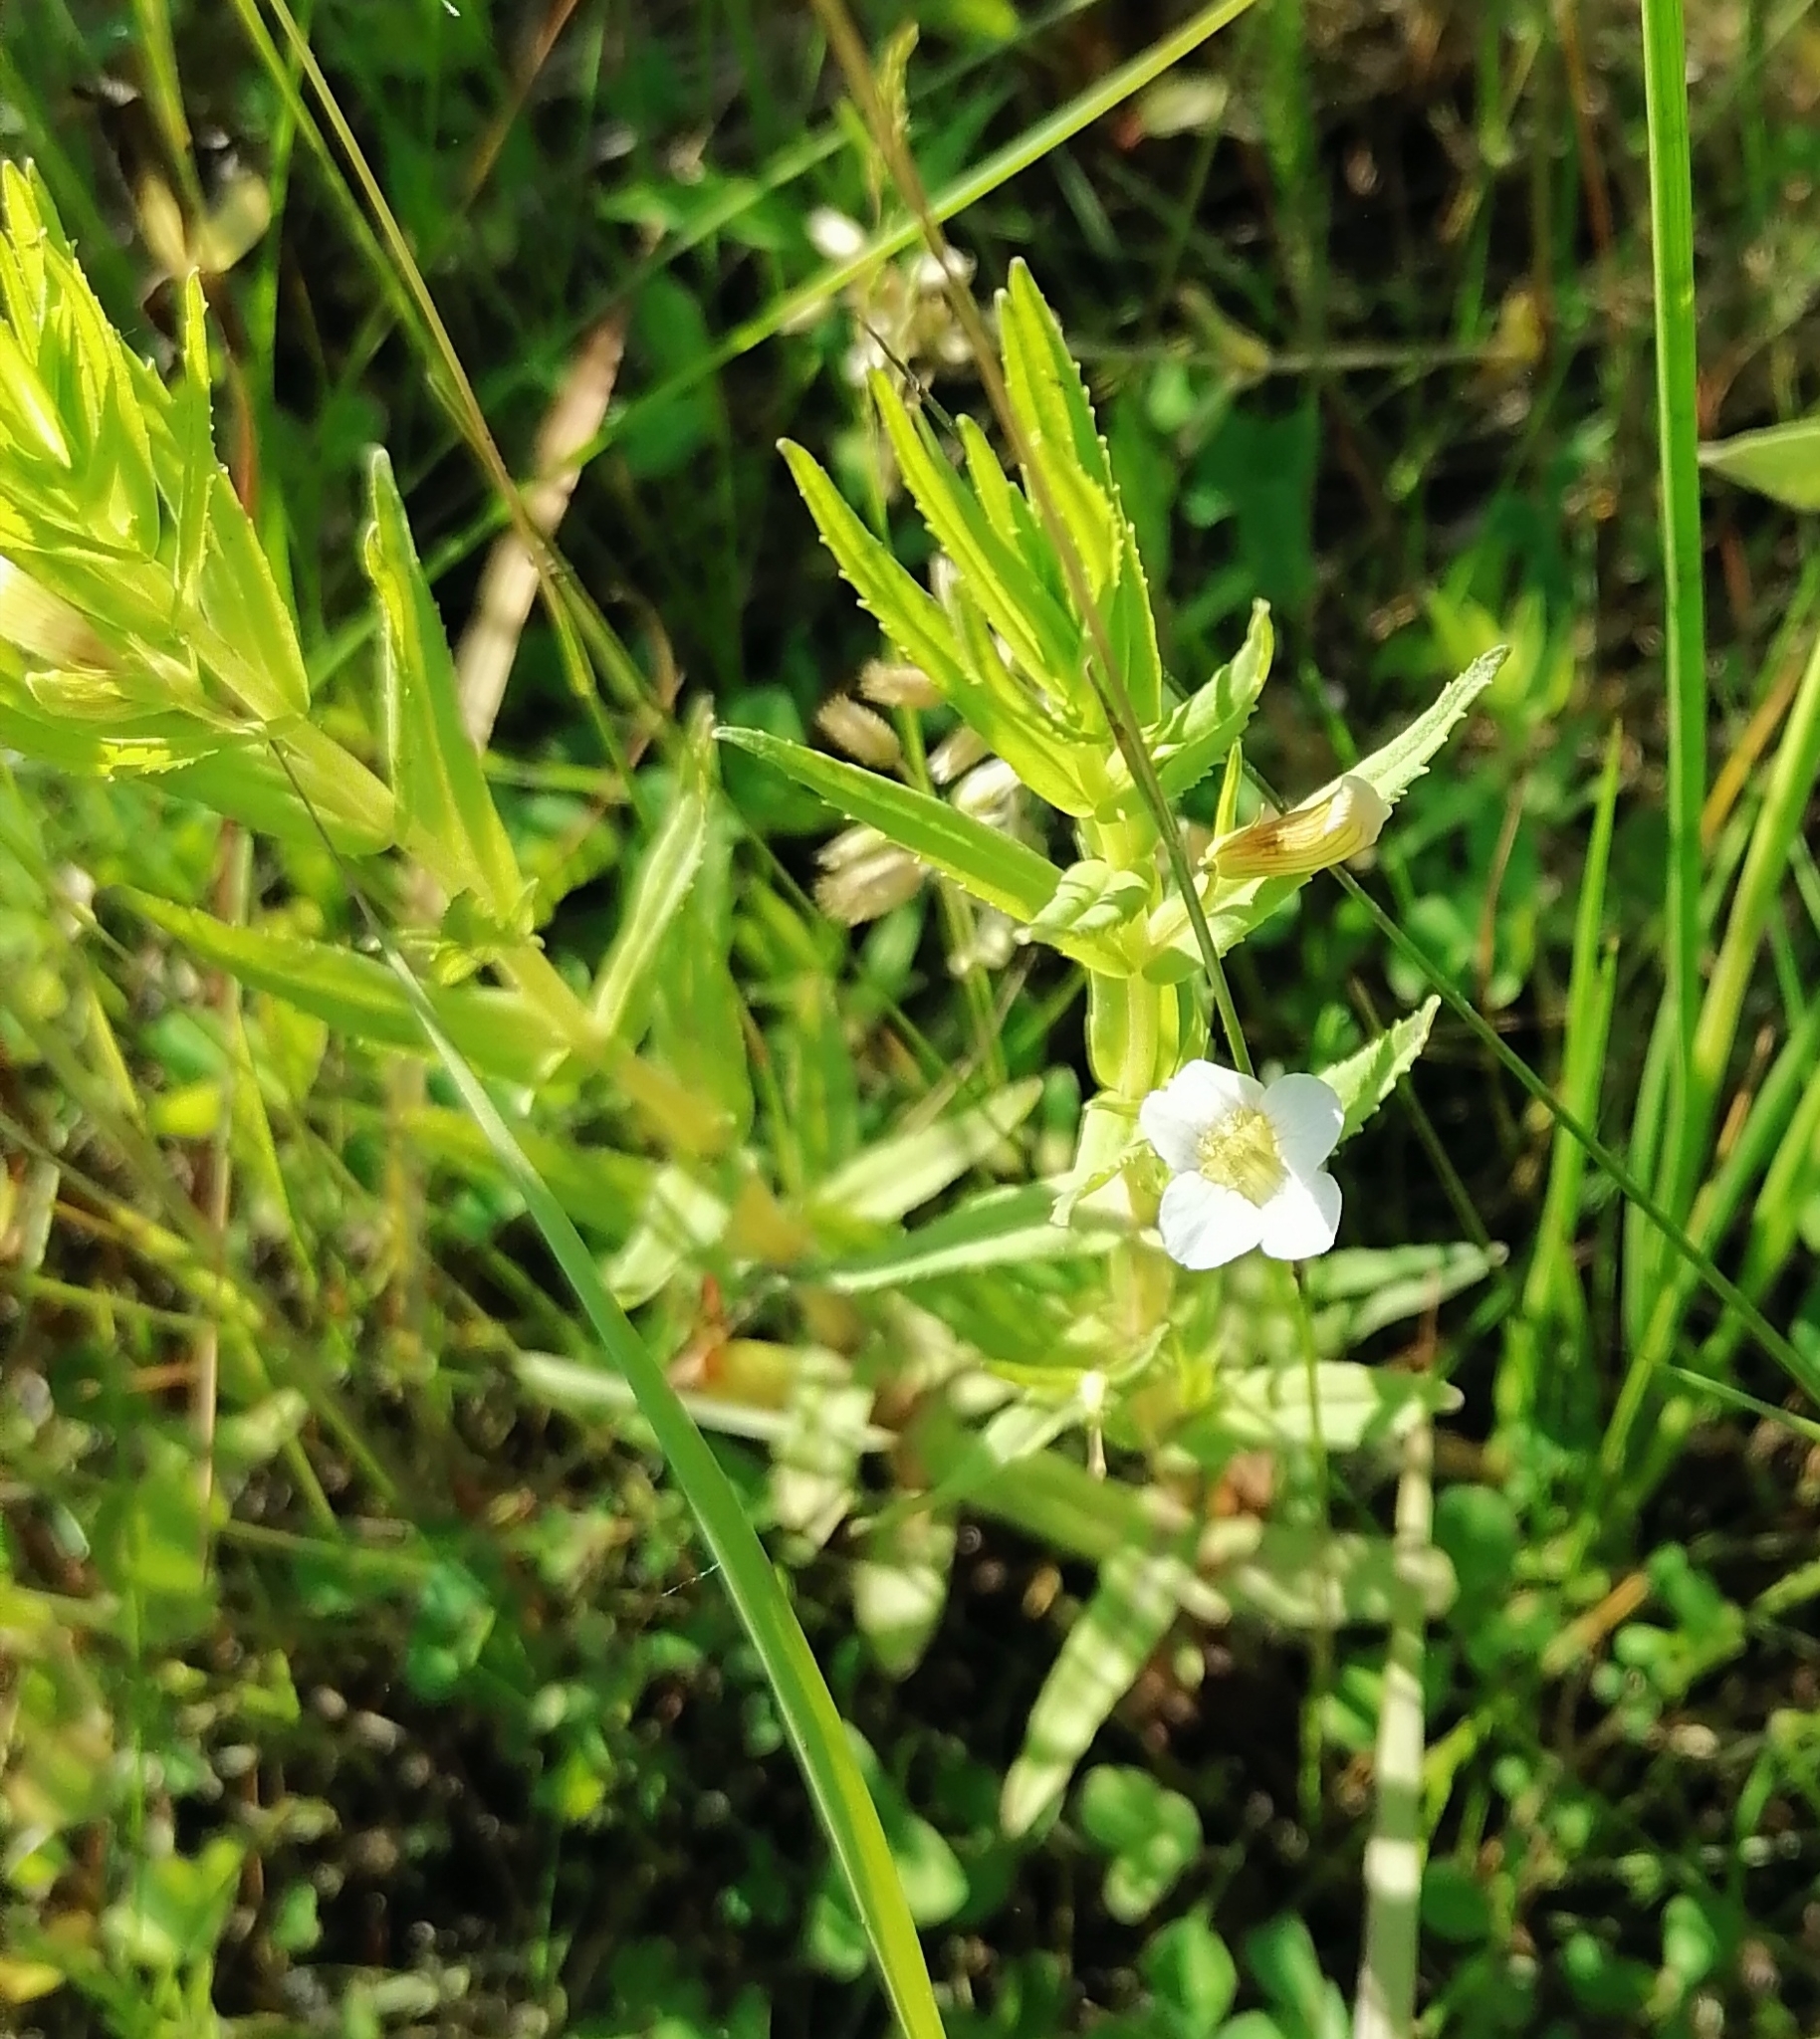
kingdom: Plantae
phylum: Tracheophyta
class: Magnoliopsida
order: Lamiales
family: Plantaginaceae
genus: Gratiola
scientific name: Gratiola officinalis
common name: Gratiola
